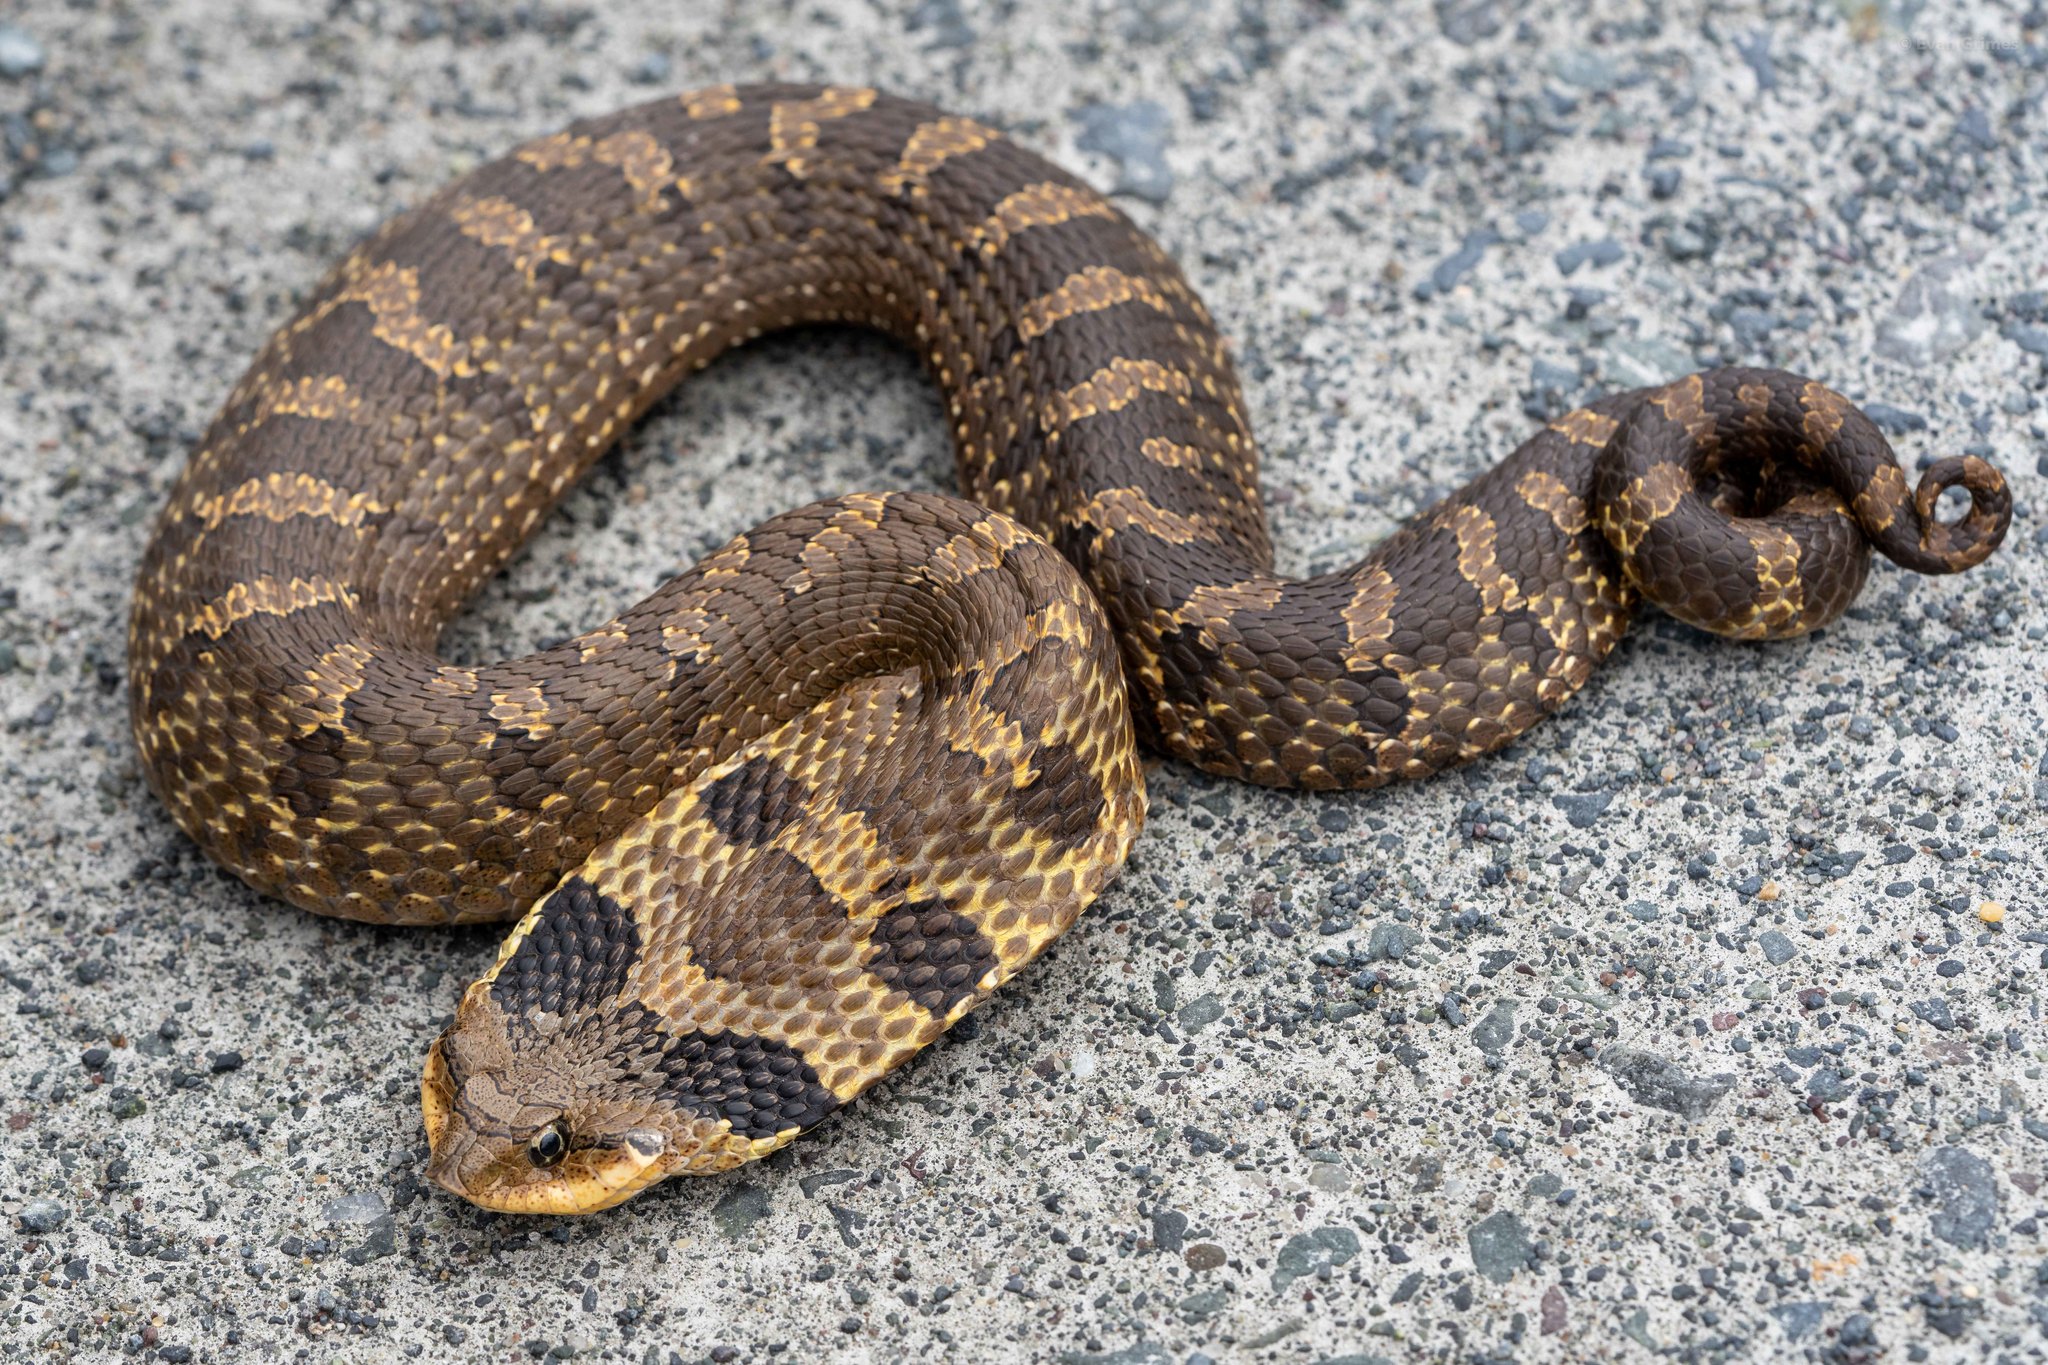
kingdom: Animalia
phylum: Chordata
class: Squamata
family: Colubridae
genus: Heterodon
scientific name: Heterodon platirhinos
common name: Eastern hognose snake
